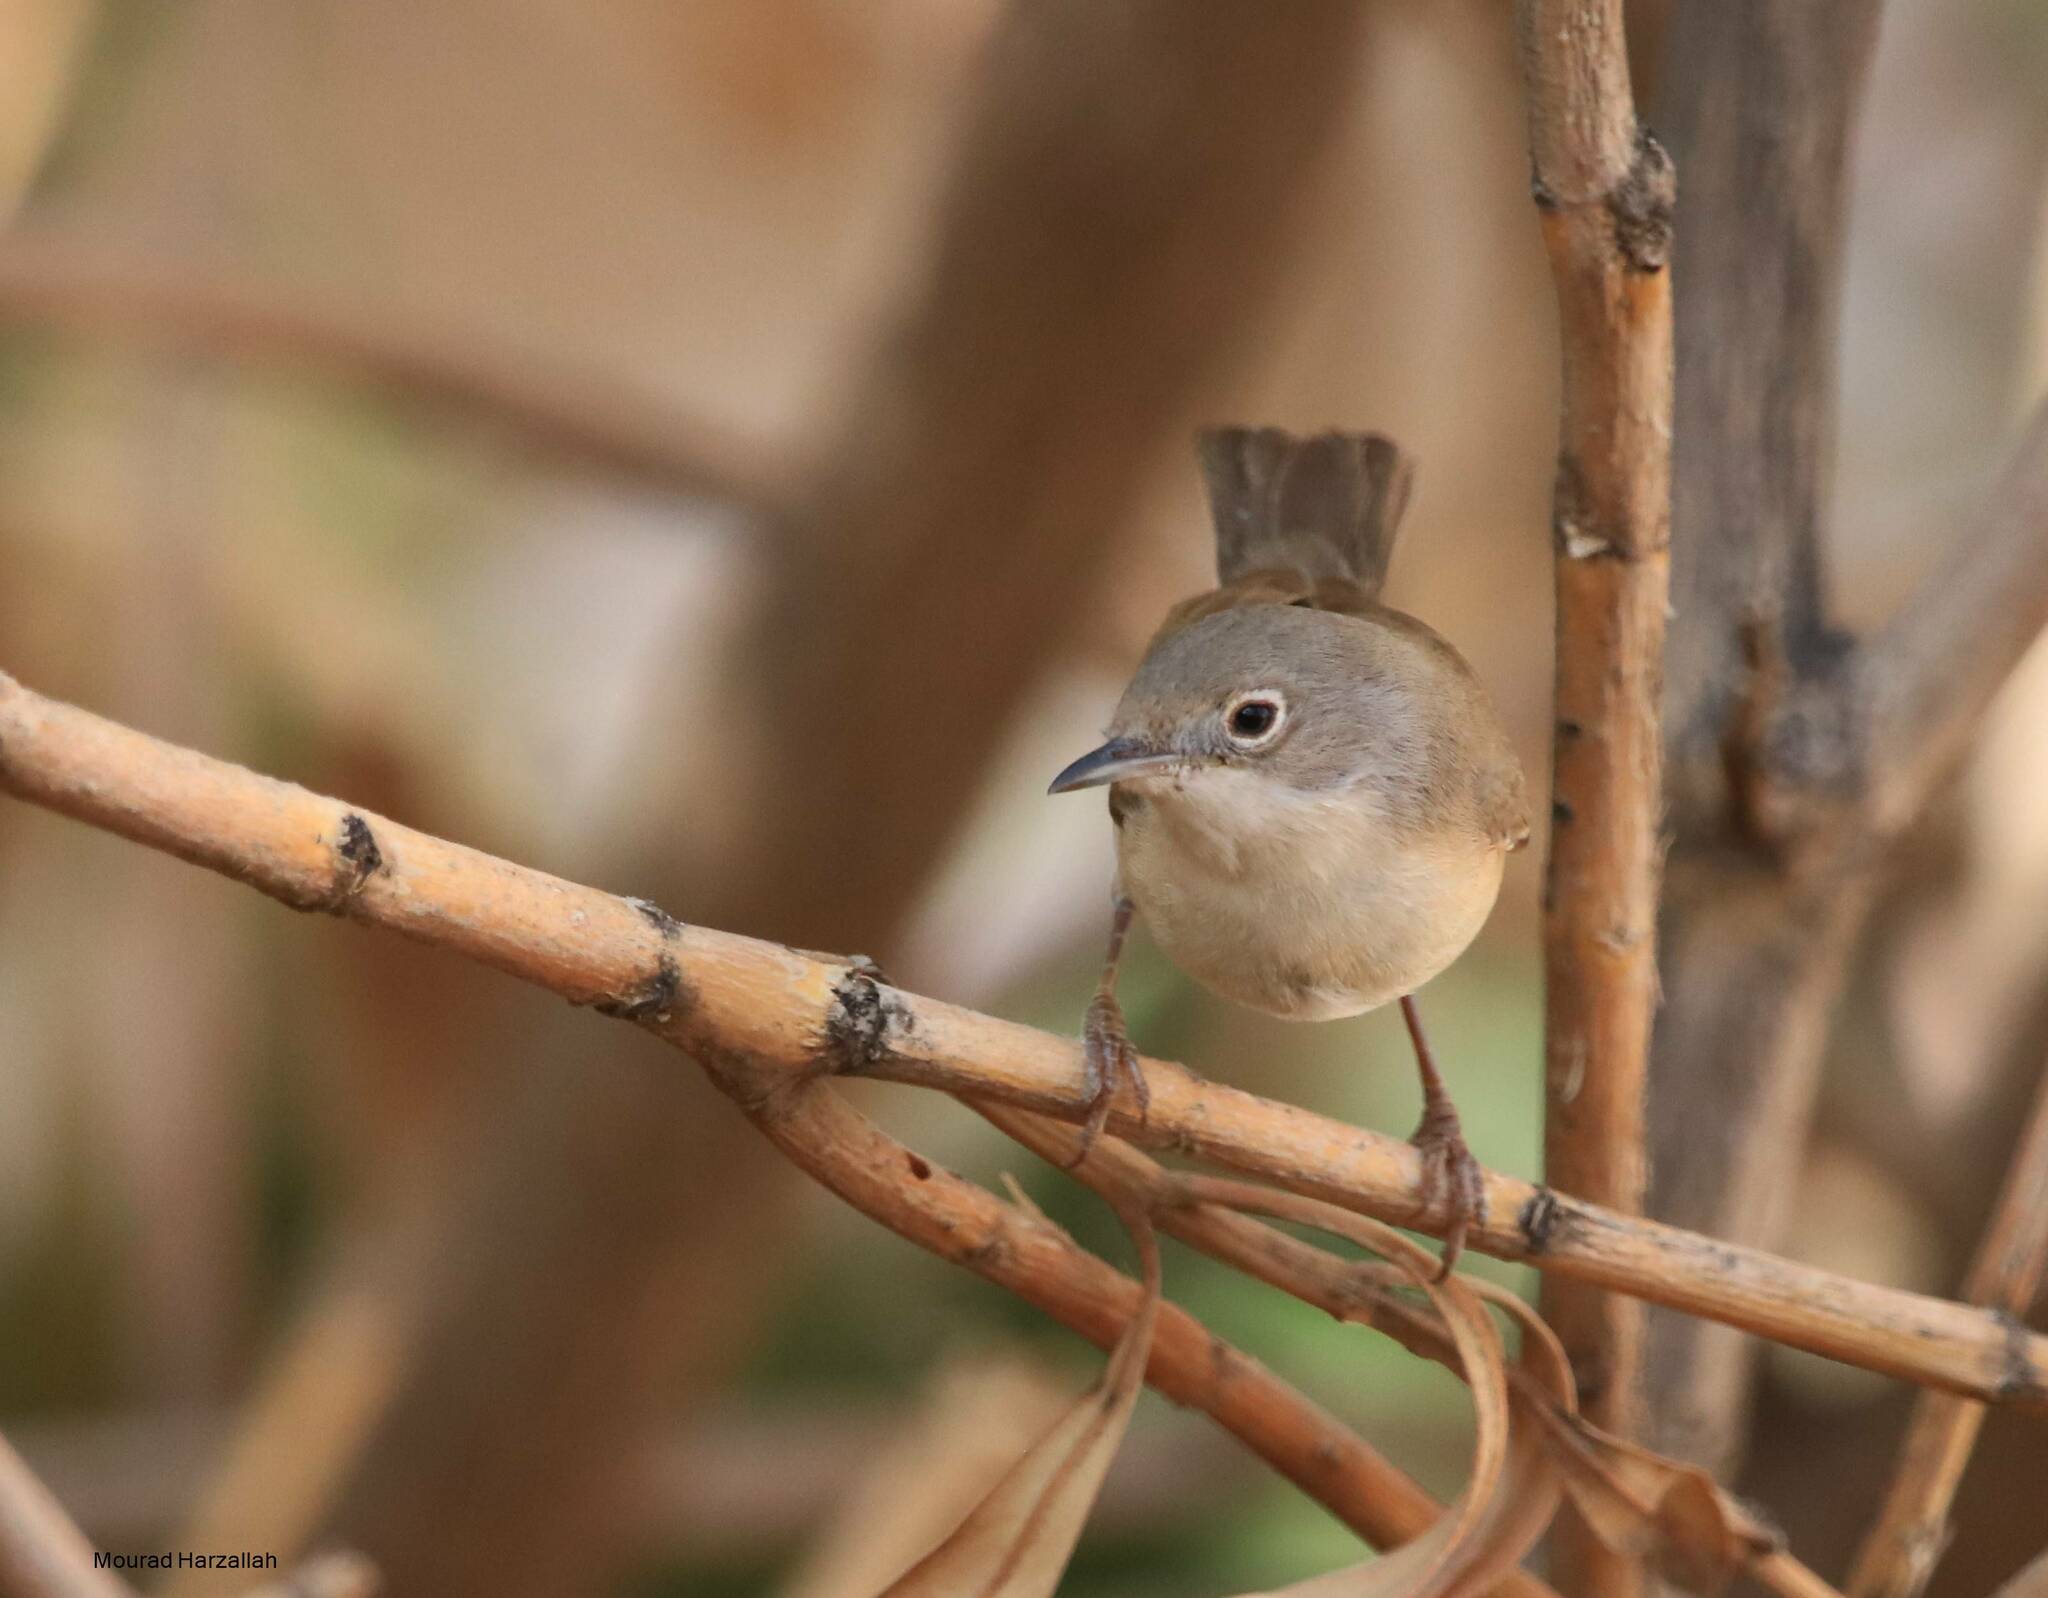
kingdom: Animalia
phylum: Chordata
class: Aves
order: Passeriformes
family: Sylviidae
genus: Curruca
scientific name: Curruca subalpina
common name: Moltoni's warbler
